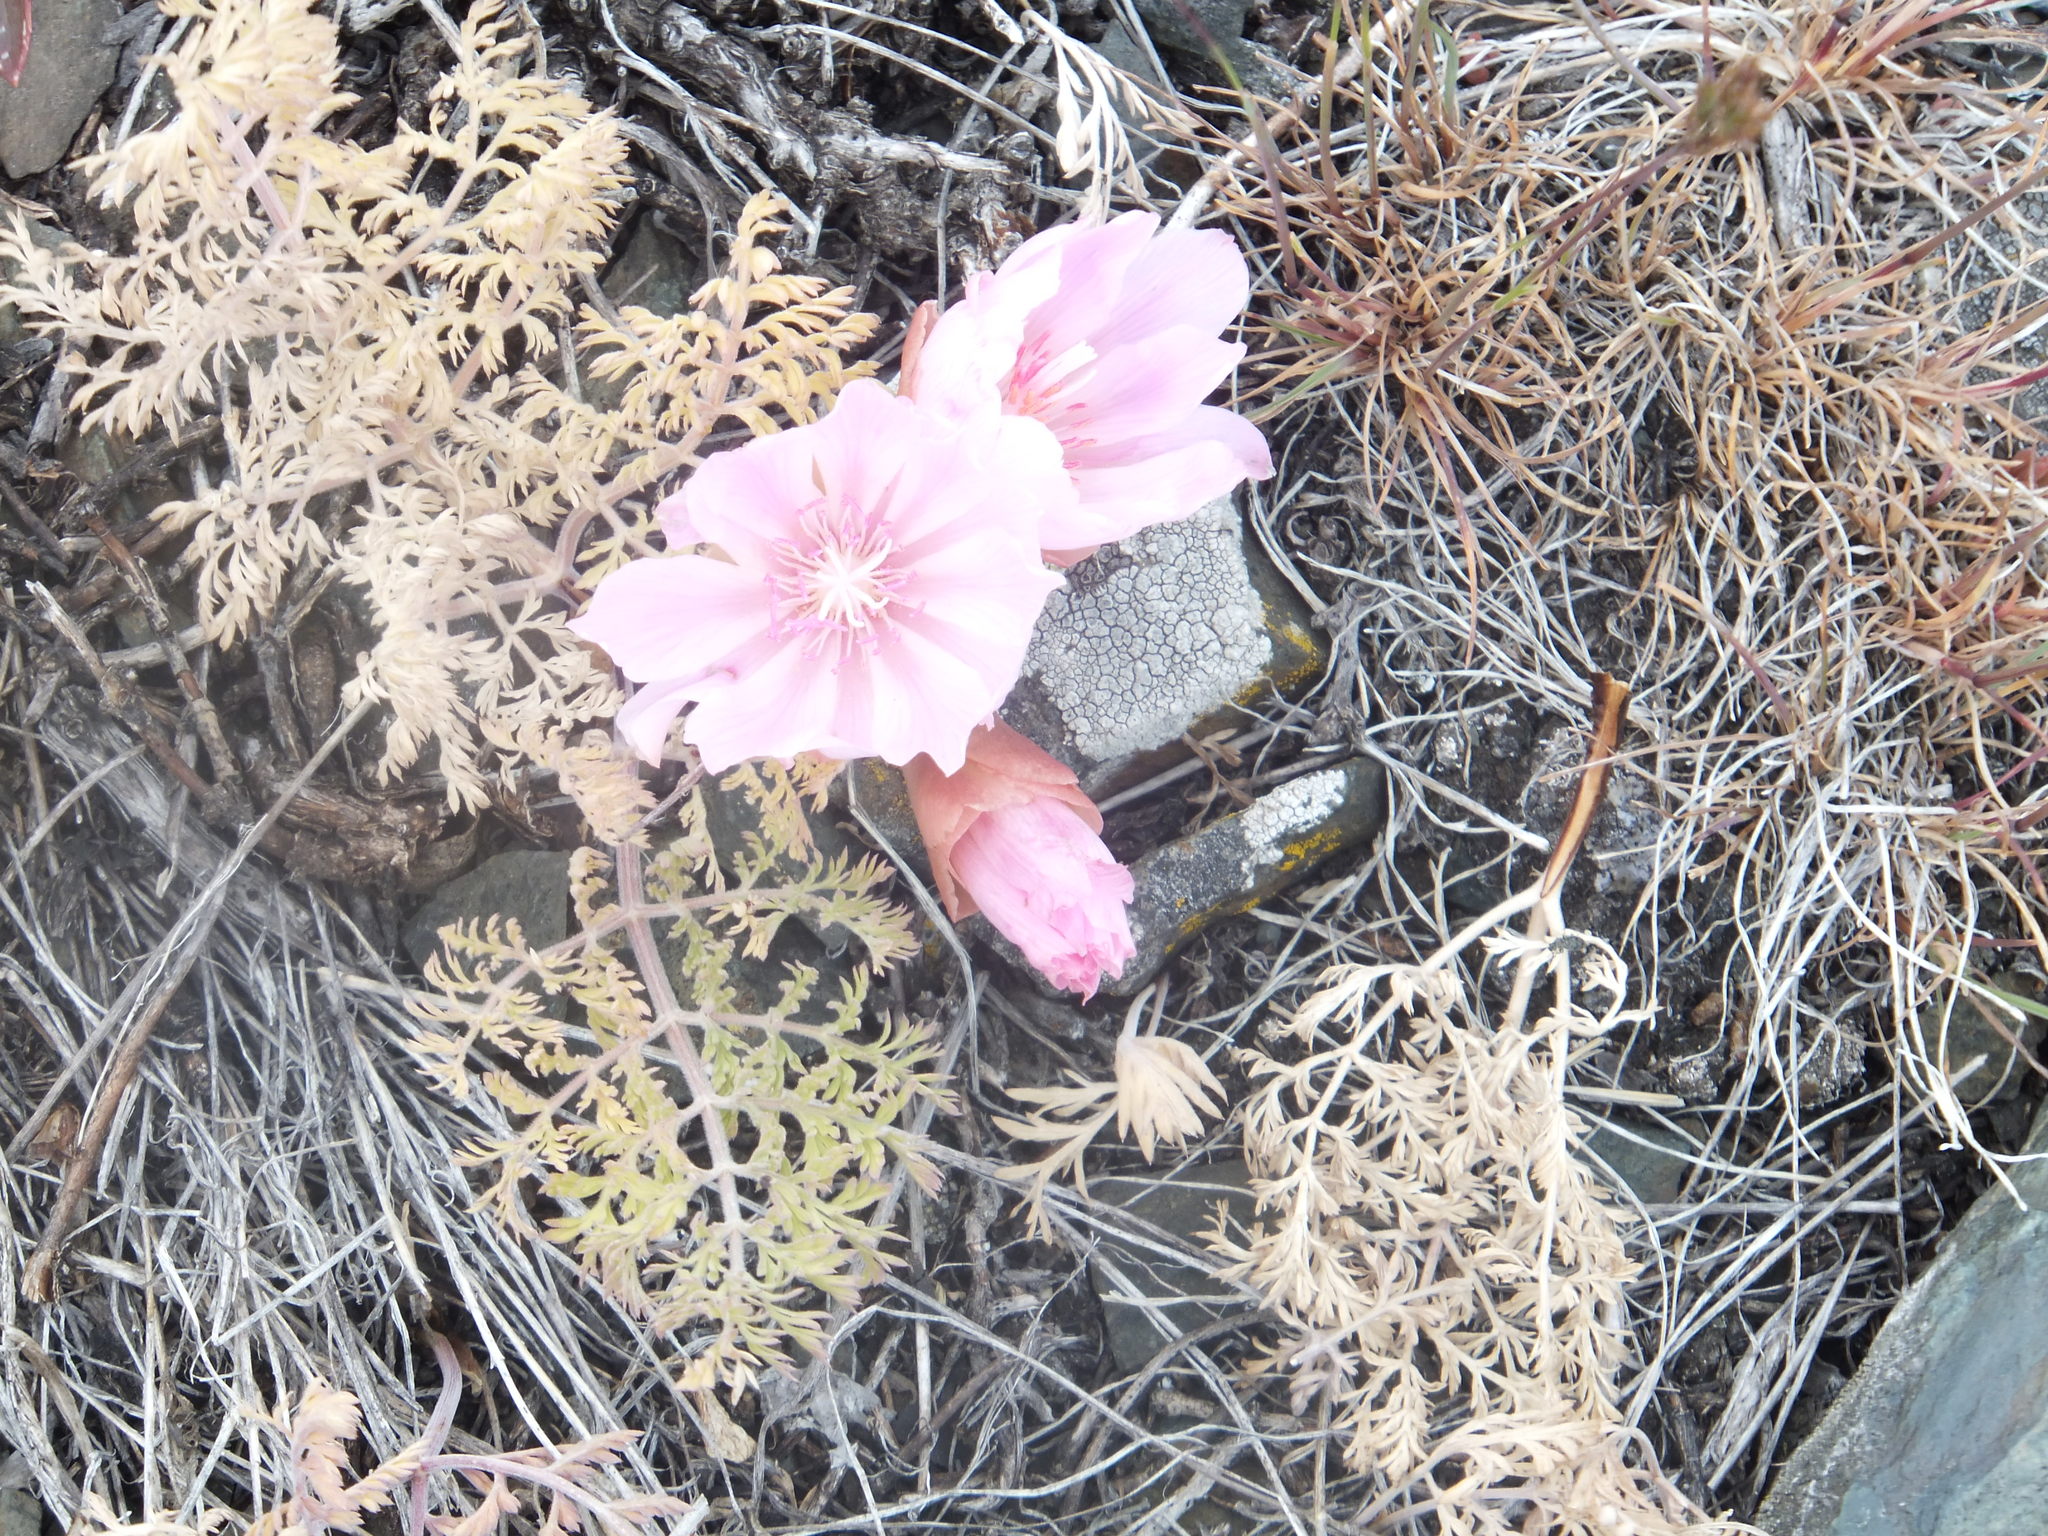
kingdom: Plantae
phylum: Tracheophyta
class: Magnoliopsida
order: Caryophyllales
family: Montiaceae
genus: Lewisia
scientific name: Lewisia rediviva
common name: Bitter-root
